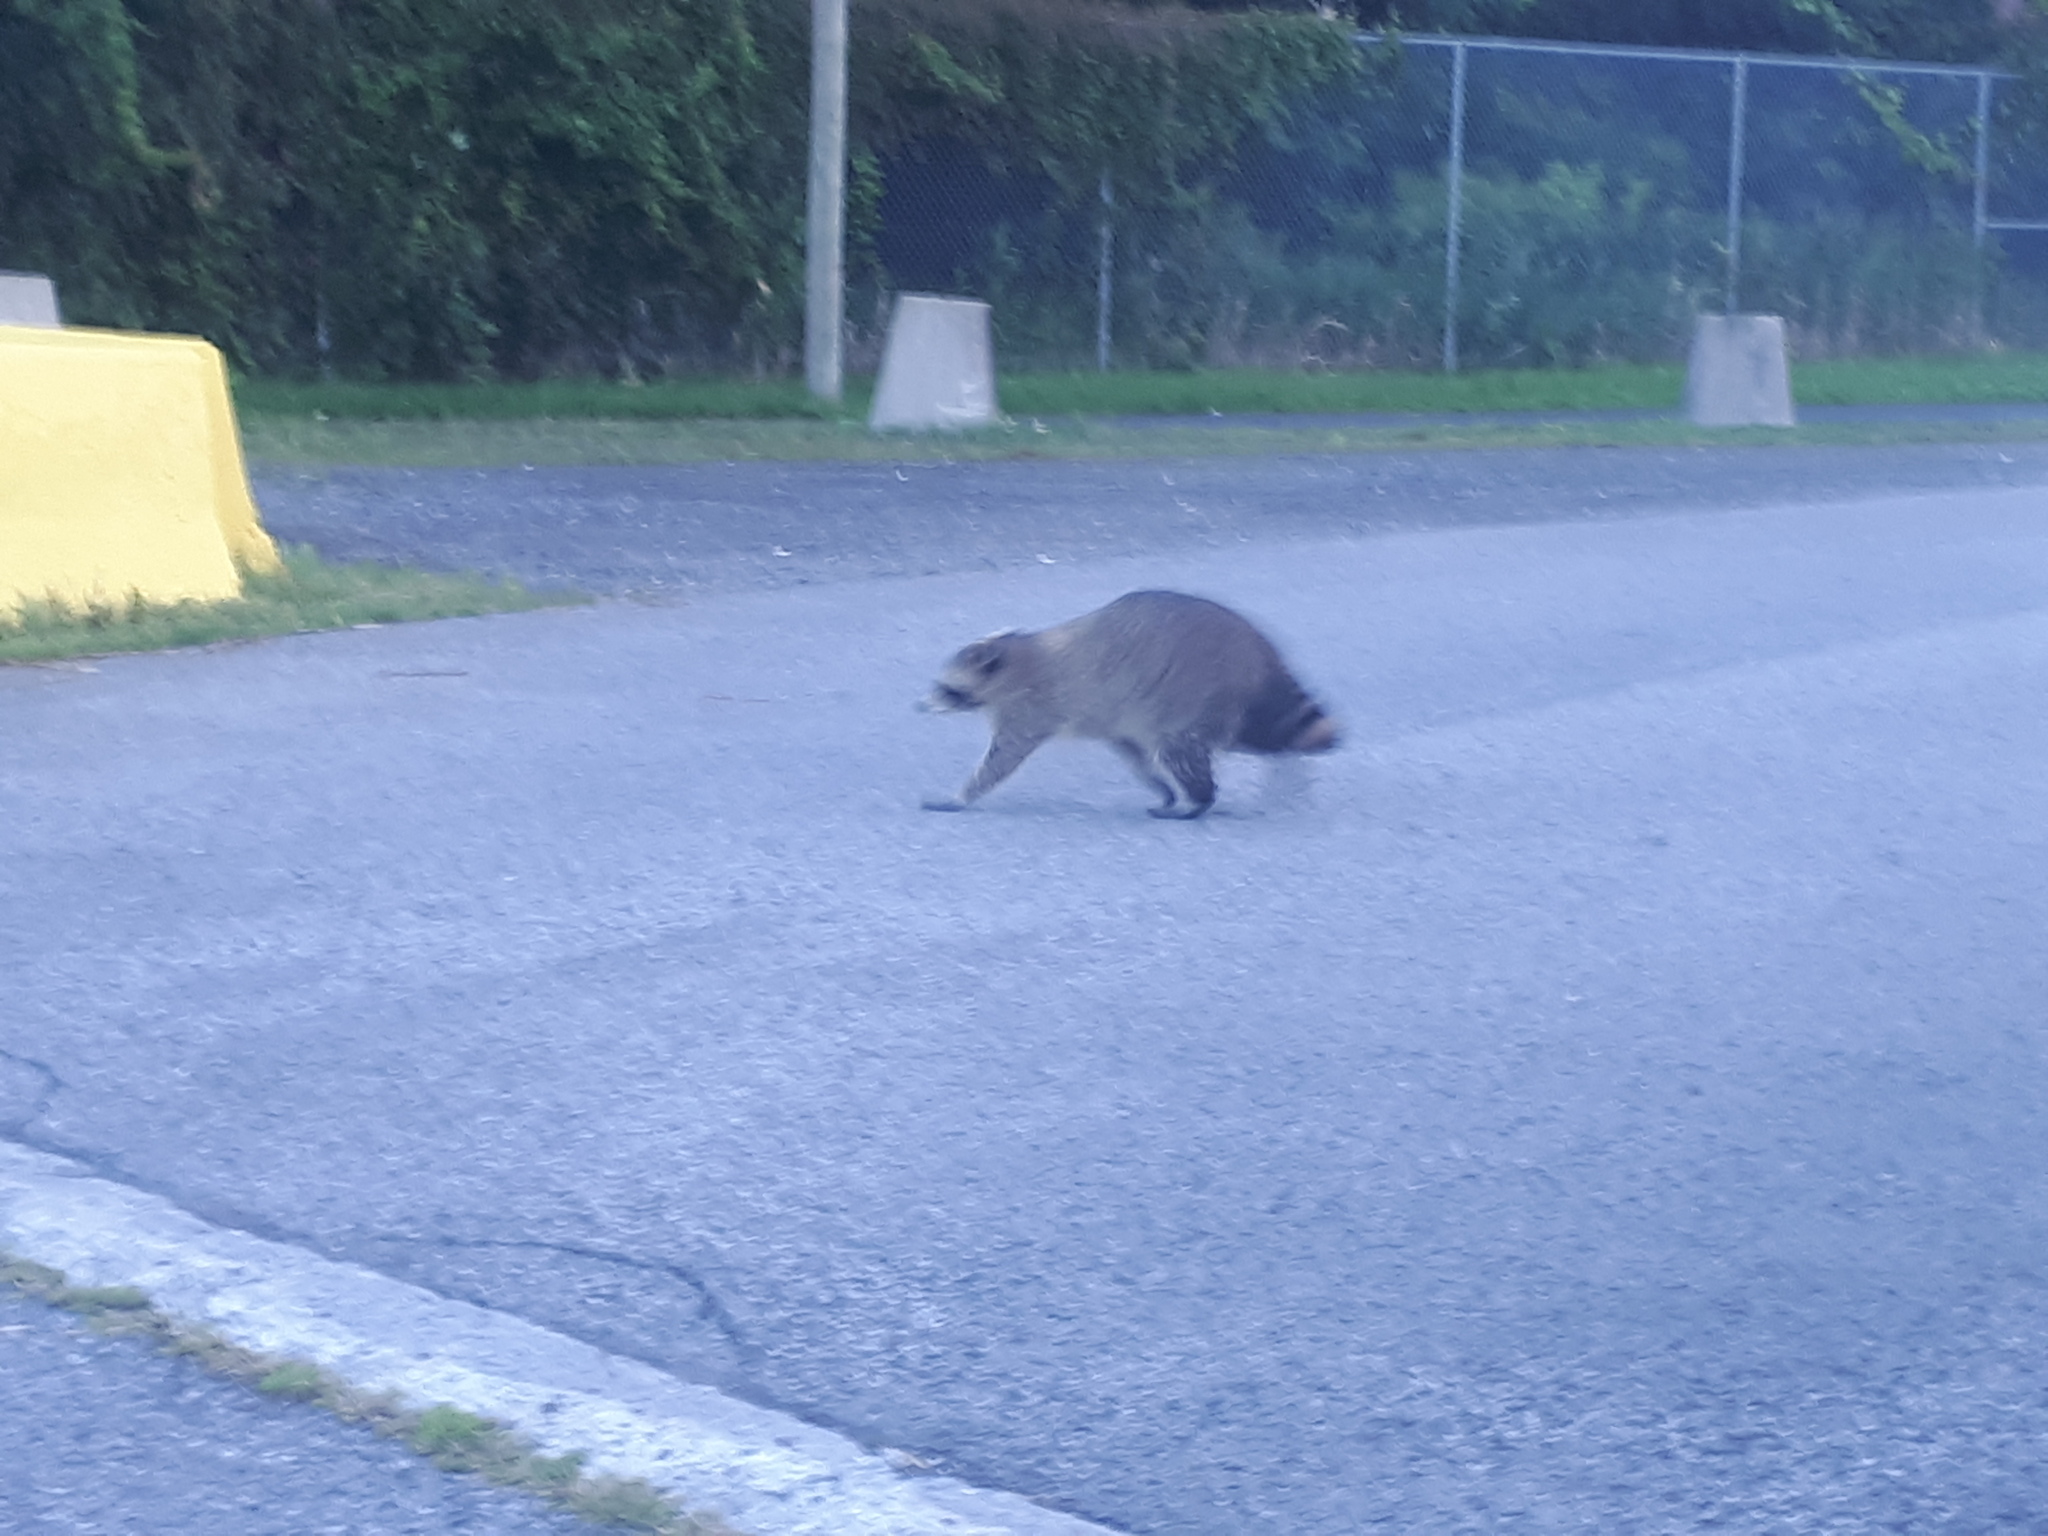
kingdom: Animalia
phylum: Chordata
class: Mammalia
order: Carnivora
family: Procyonidae
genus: Procyon
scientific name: Procyon lotor
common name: Raccoon
